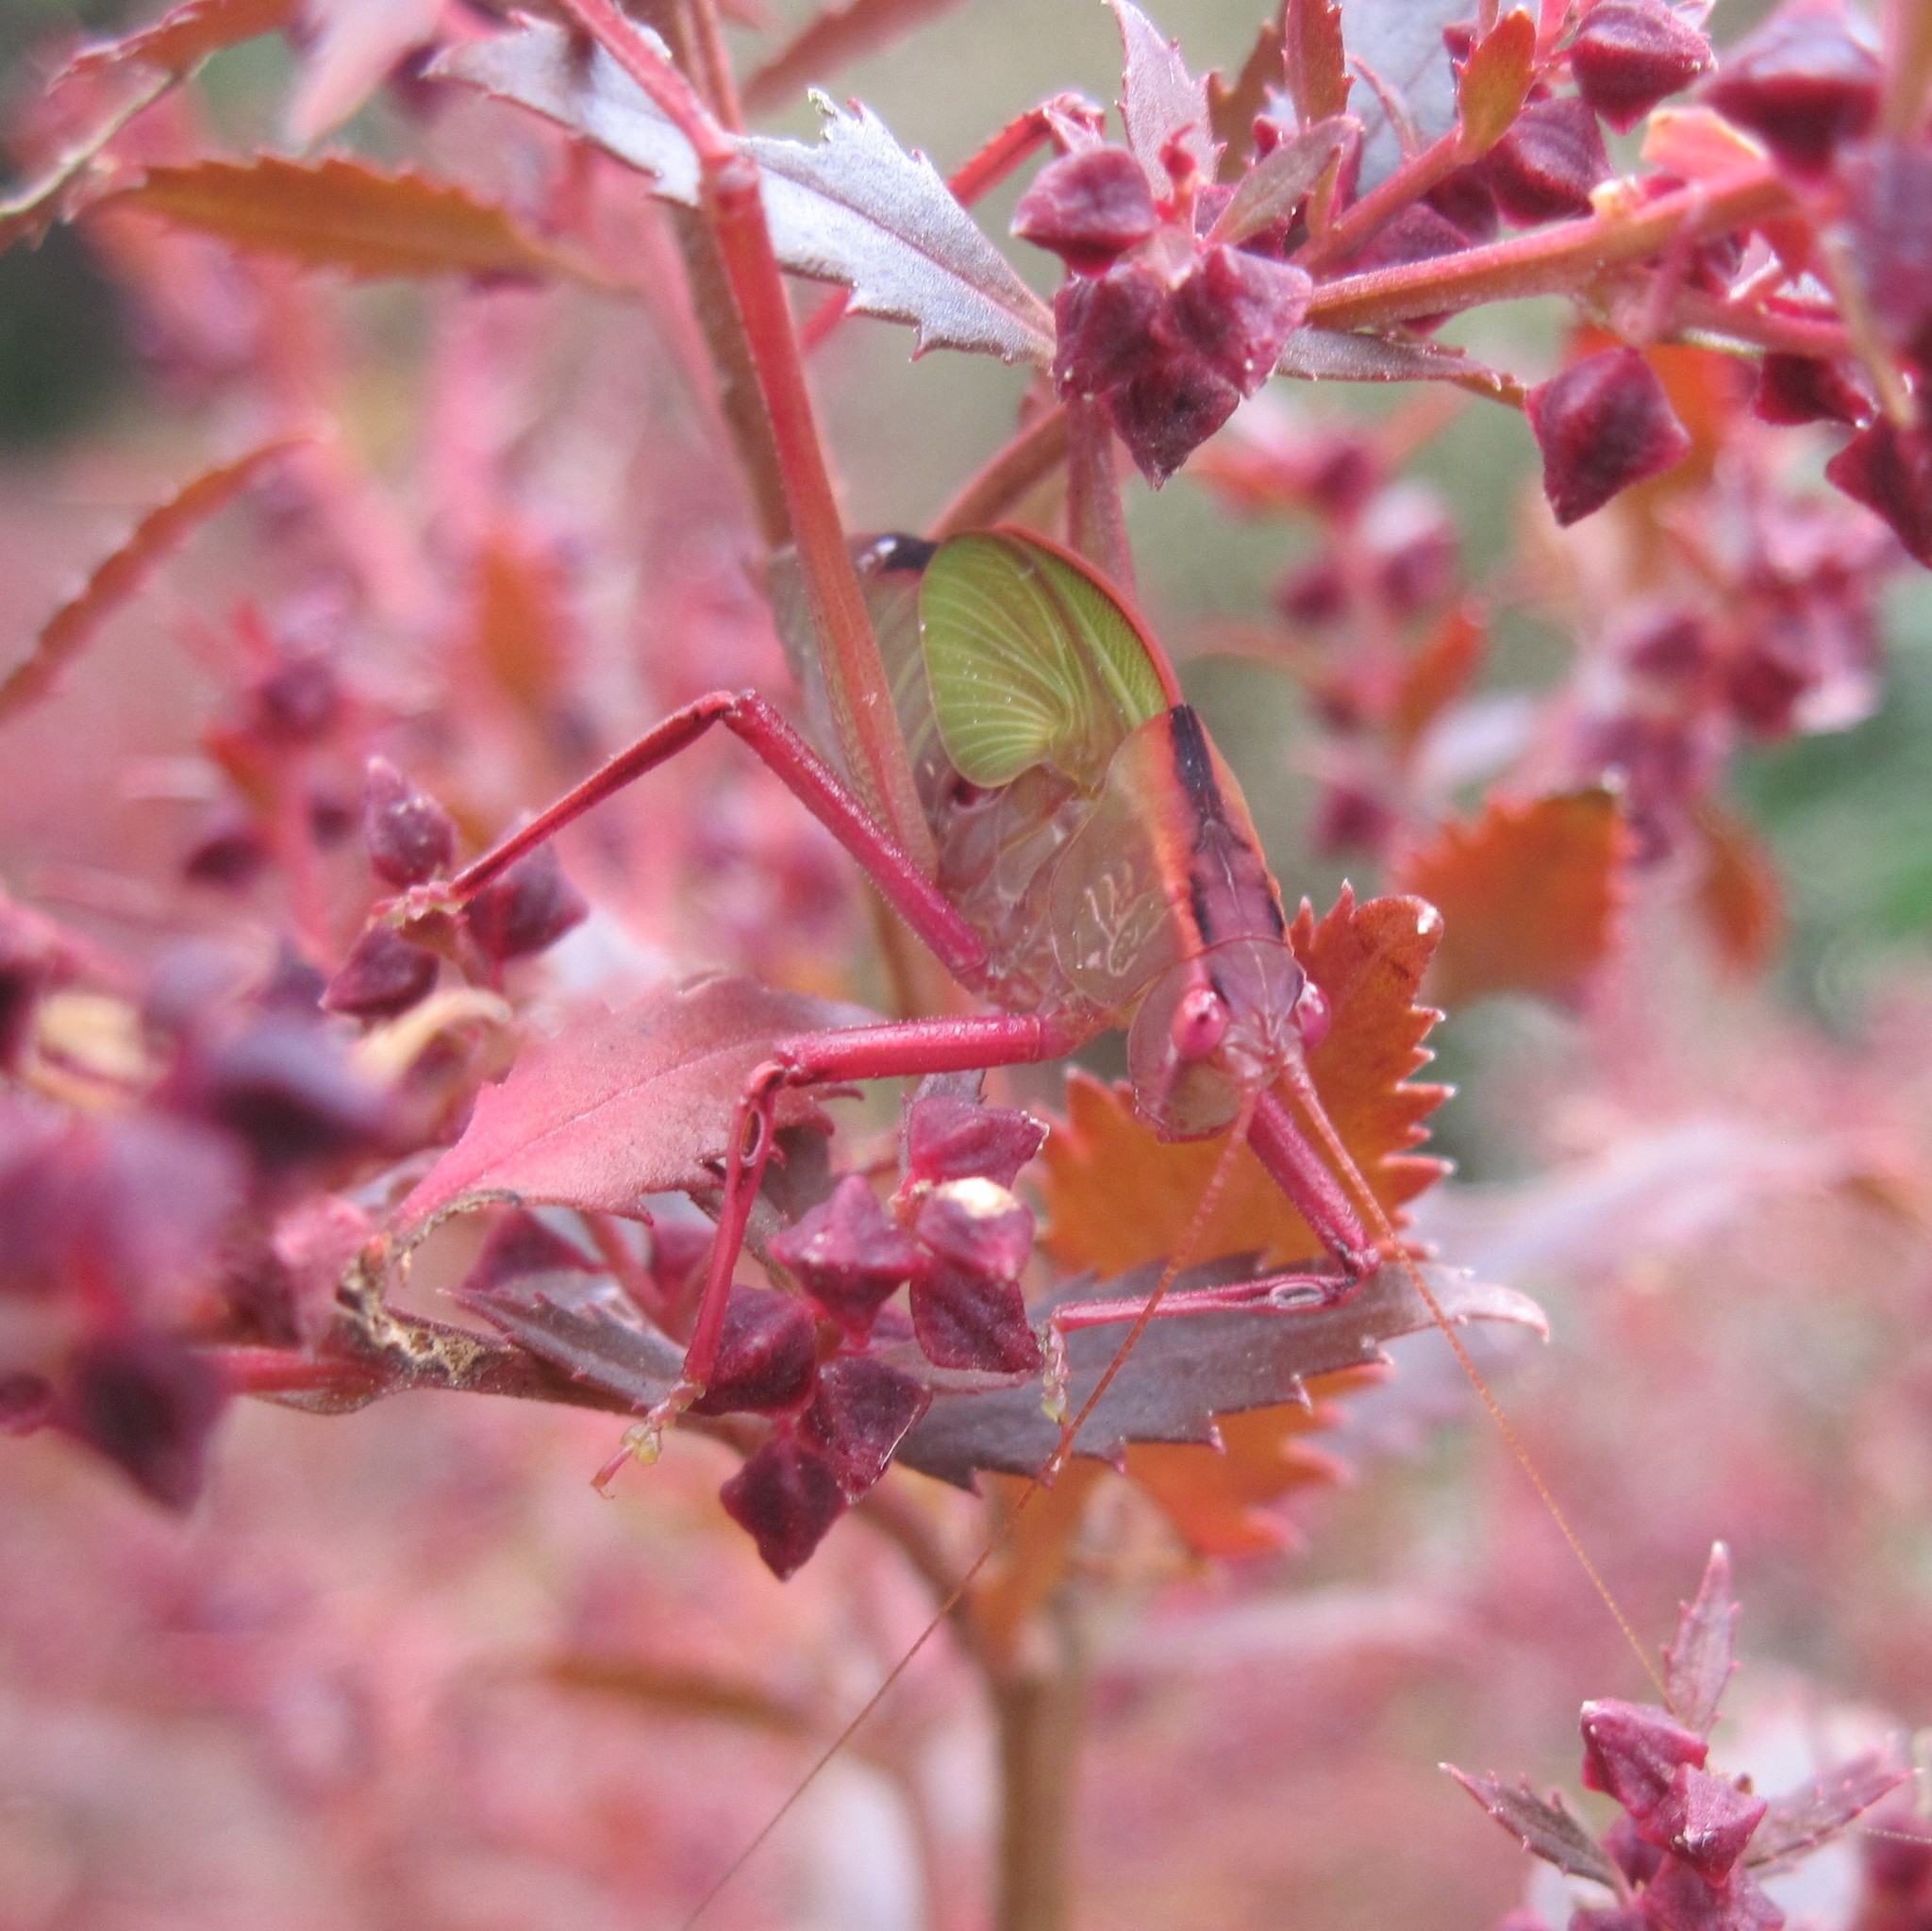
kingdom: Animalia
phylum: Arthropoda
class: Insecta
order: Orthoptera
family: Tettigoniidae
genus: Caedicia
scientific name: Caedicia simplex
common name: Common garden katydid
